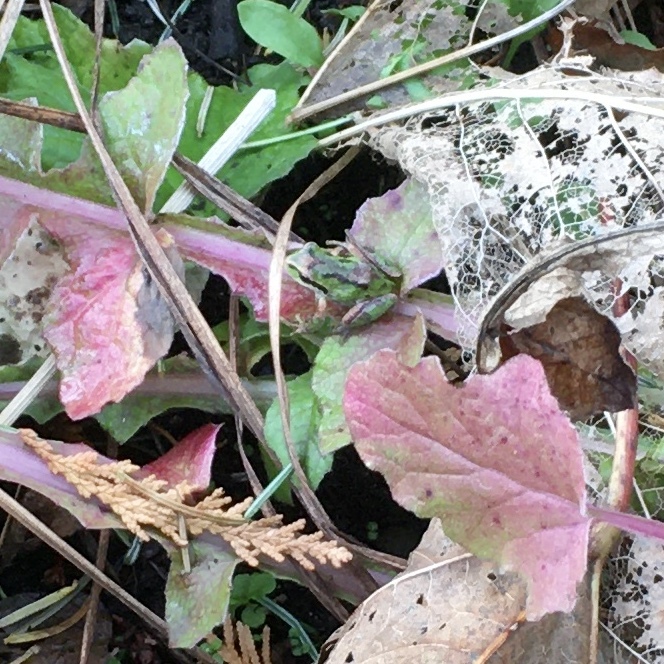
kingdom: Animalia
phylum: Chordata
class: Amphibia
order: Anura
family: Hylidae
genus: Pseudacris
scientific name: Pseudacris regilla
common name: Pacific chorus frog
